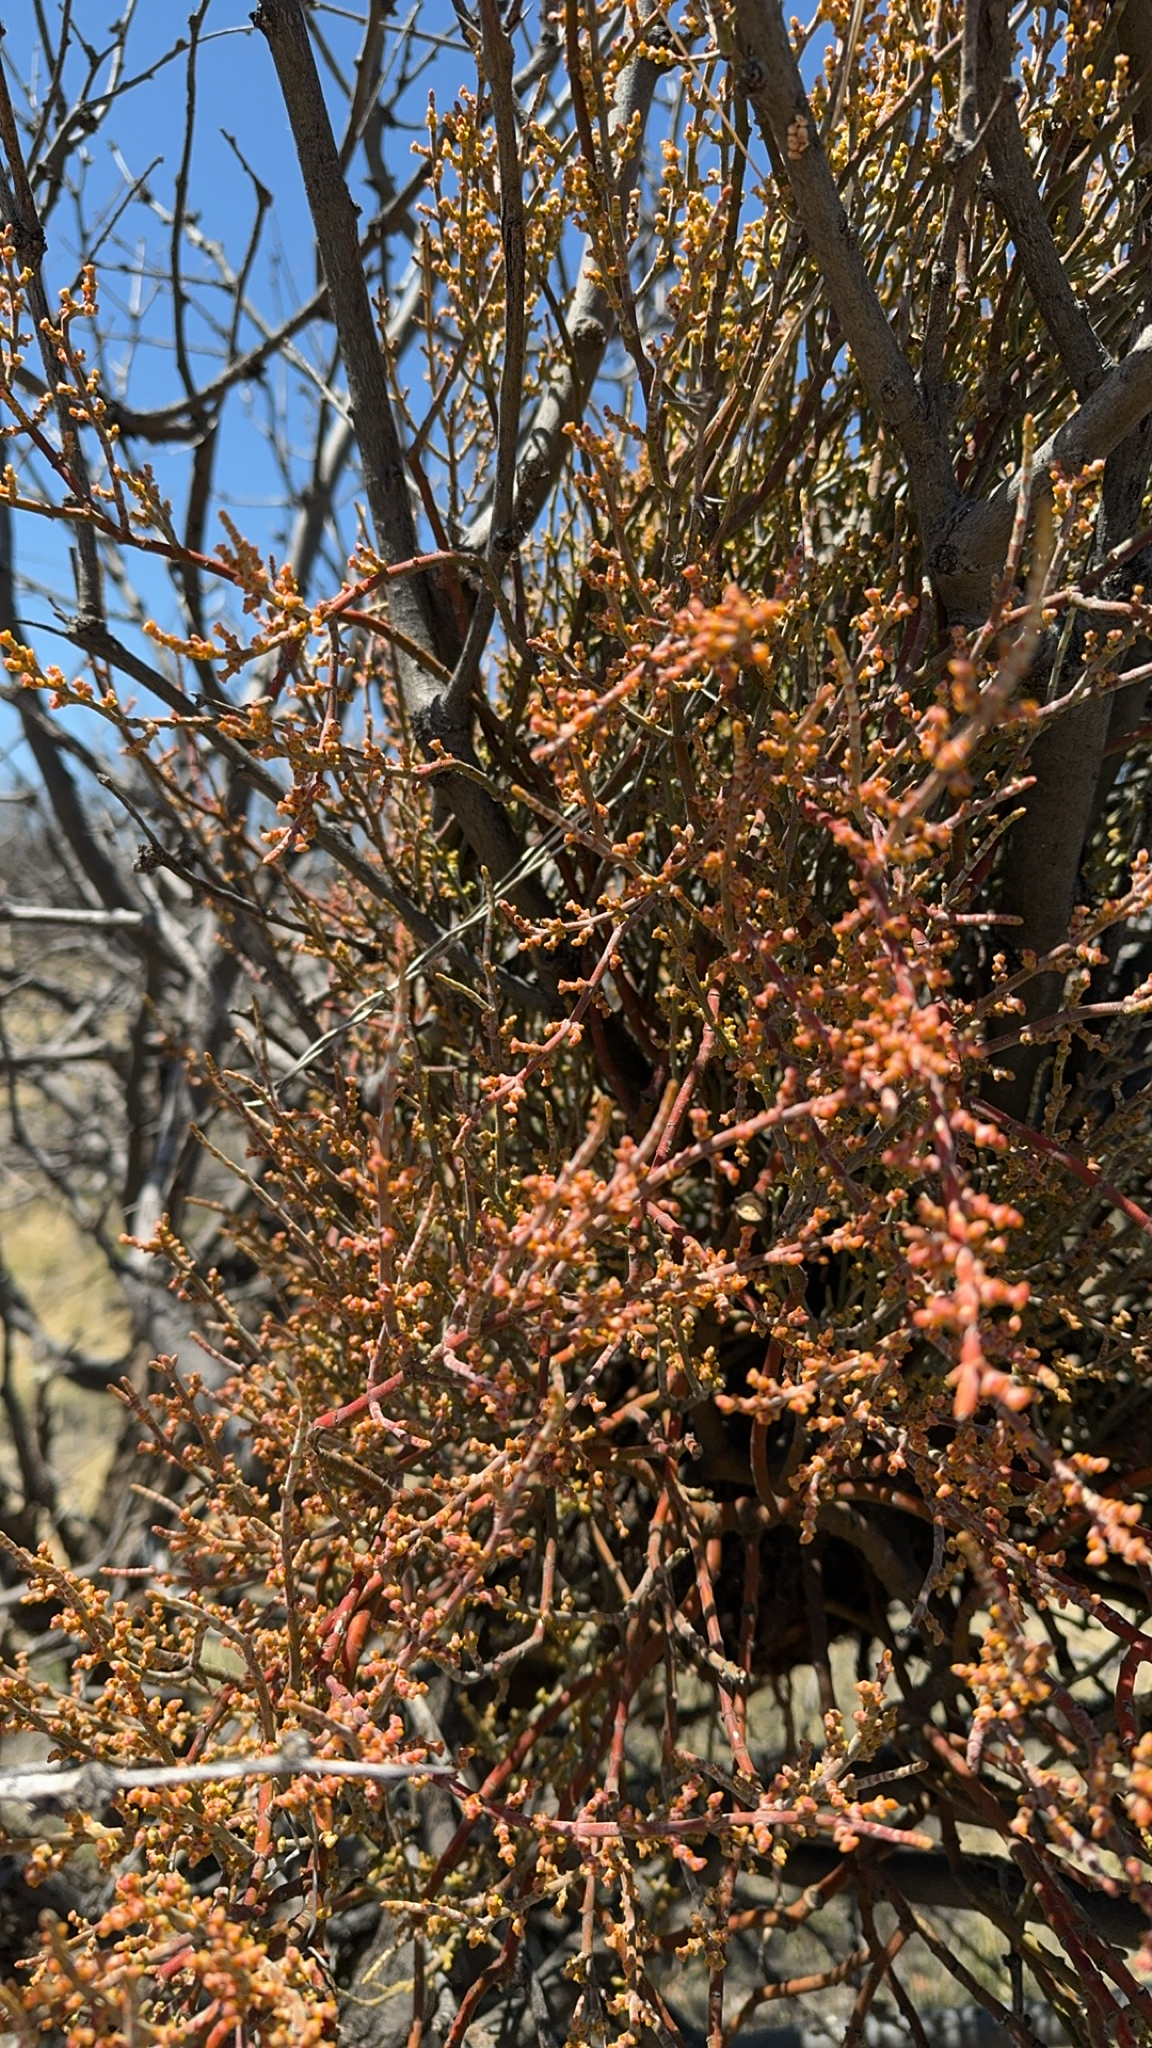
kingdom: Plantae
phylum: Tracheophyta
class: Magnoliopsida
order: Santalales
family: Viscaceae
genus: Phoradendron
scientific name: Phoradendron californicum
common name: Acacia mistletoe
